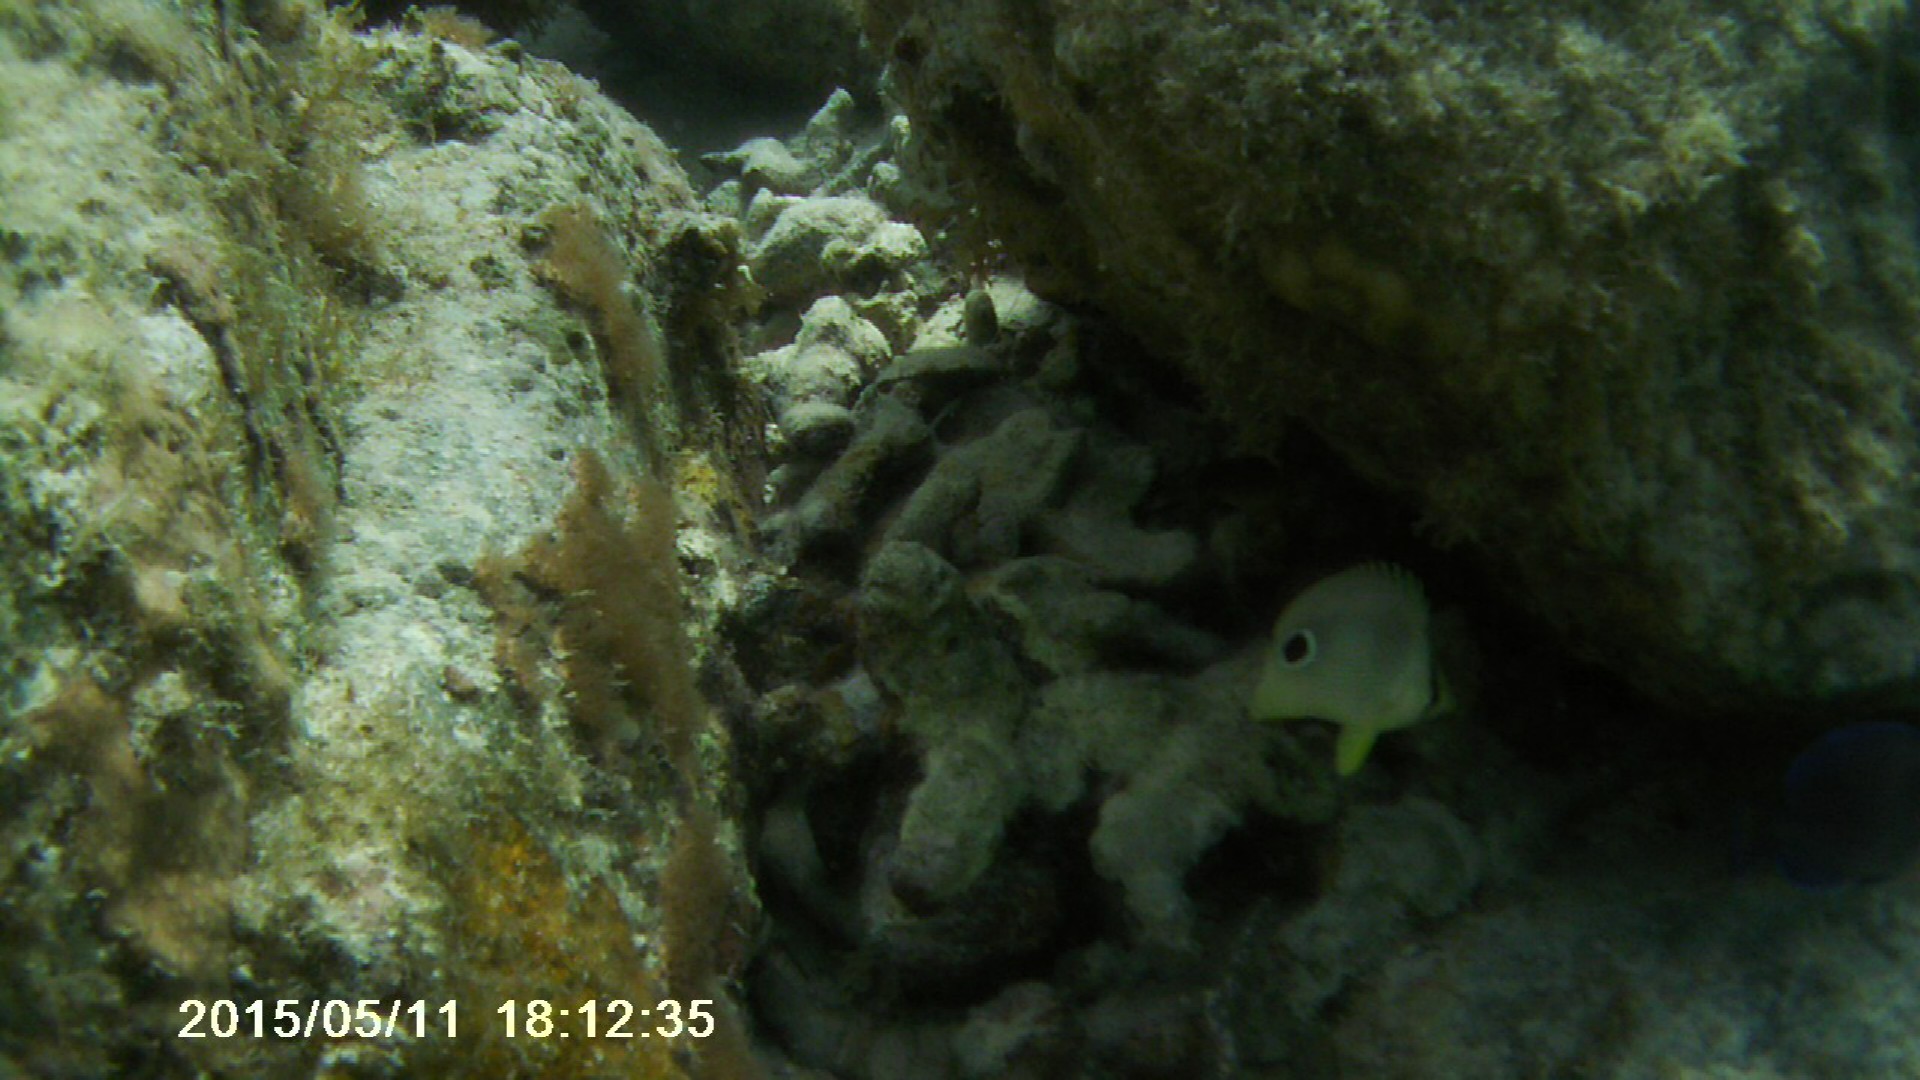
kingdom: Animalia
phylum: Chordata
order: Perciformes
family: Chaetodontidae
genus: Chaetodon
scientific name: Chaetodon capistratus
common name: Kete
